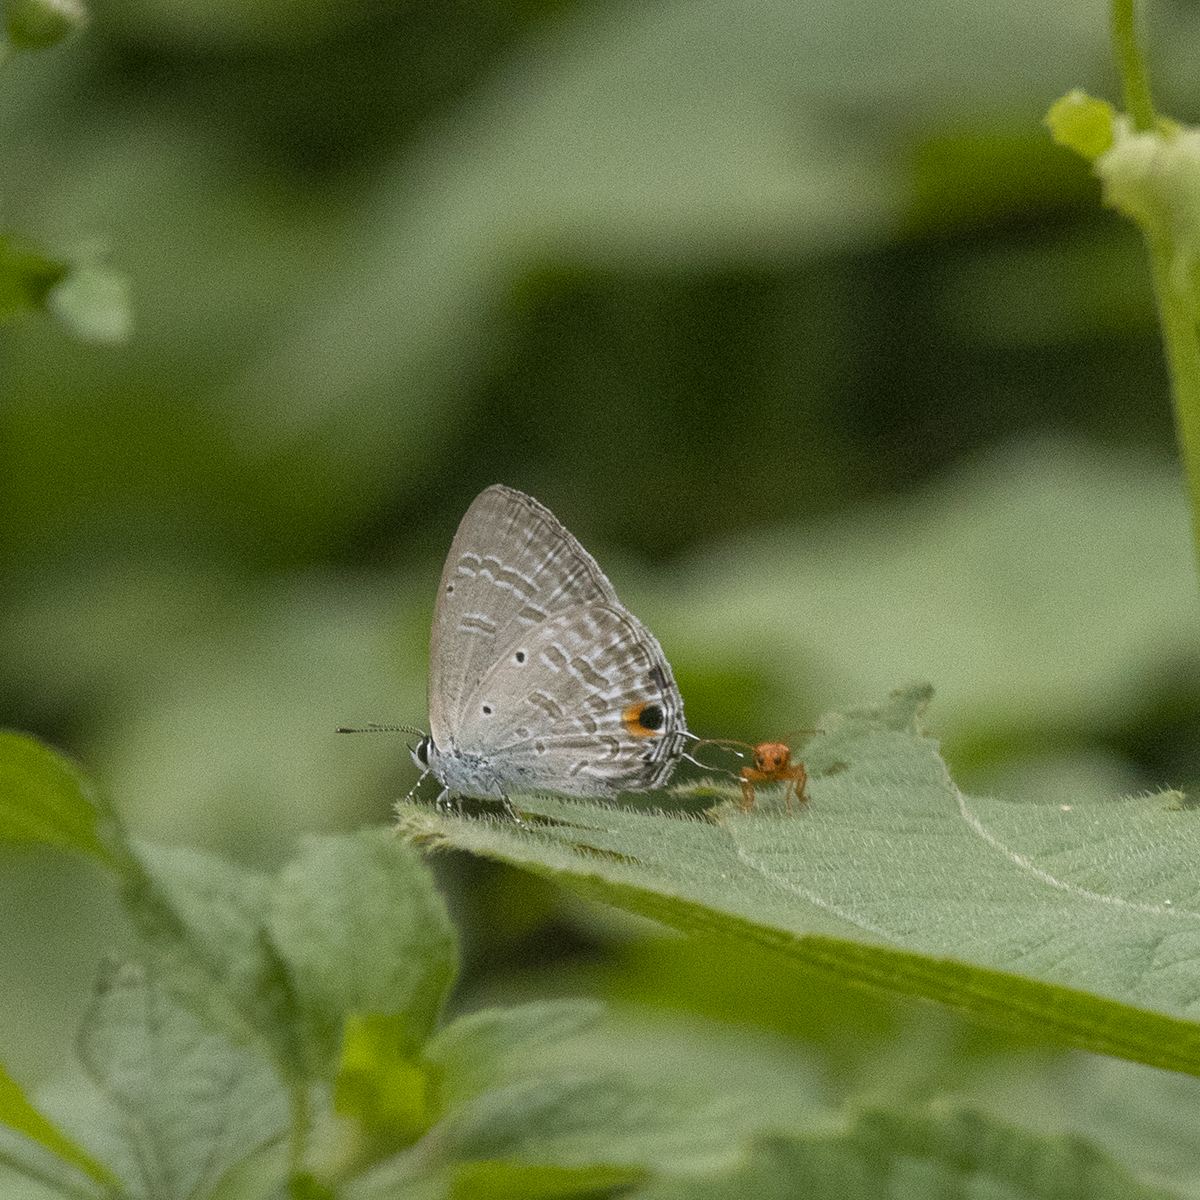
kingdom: Animalia
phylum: Arthropoda
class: Insecta
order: Lepidoptera
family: Lycaenidae
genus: Catochrysops
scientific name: Catochrysops strabo
